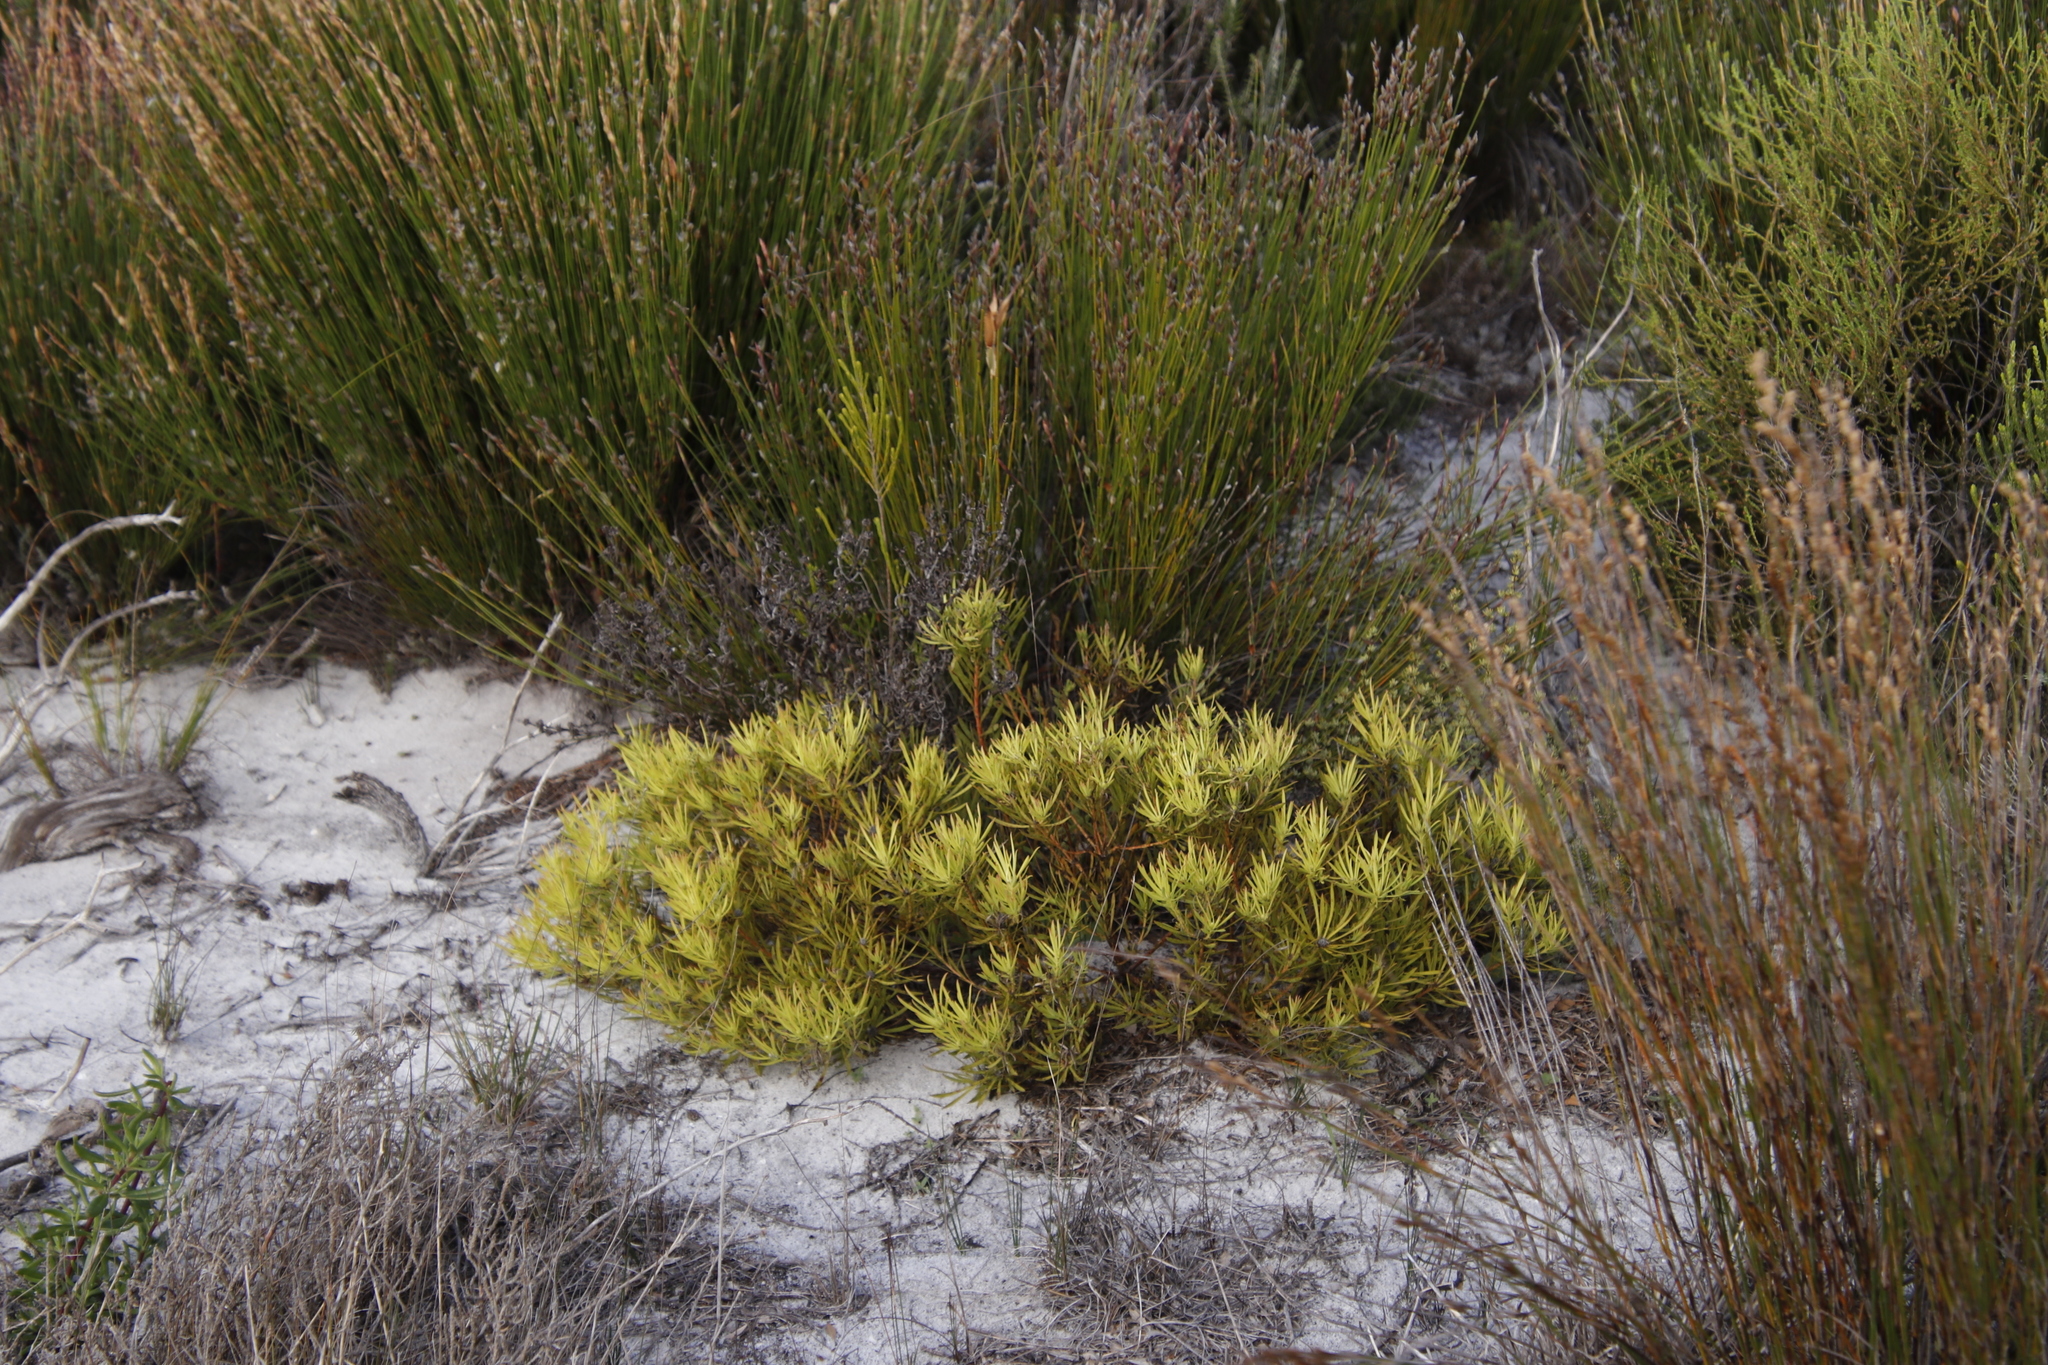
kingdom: Plantae
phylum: Tracheophyta
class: Magnoliopsida
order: Proteales
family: Proteaceae
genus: Leucadendron
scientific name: Leucadendron salignum
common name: Common sunshine conebush
